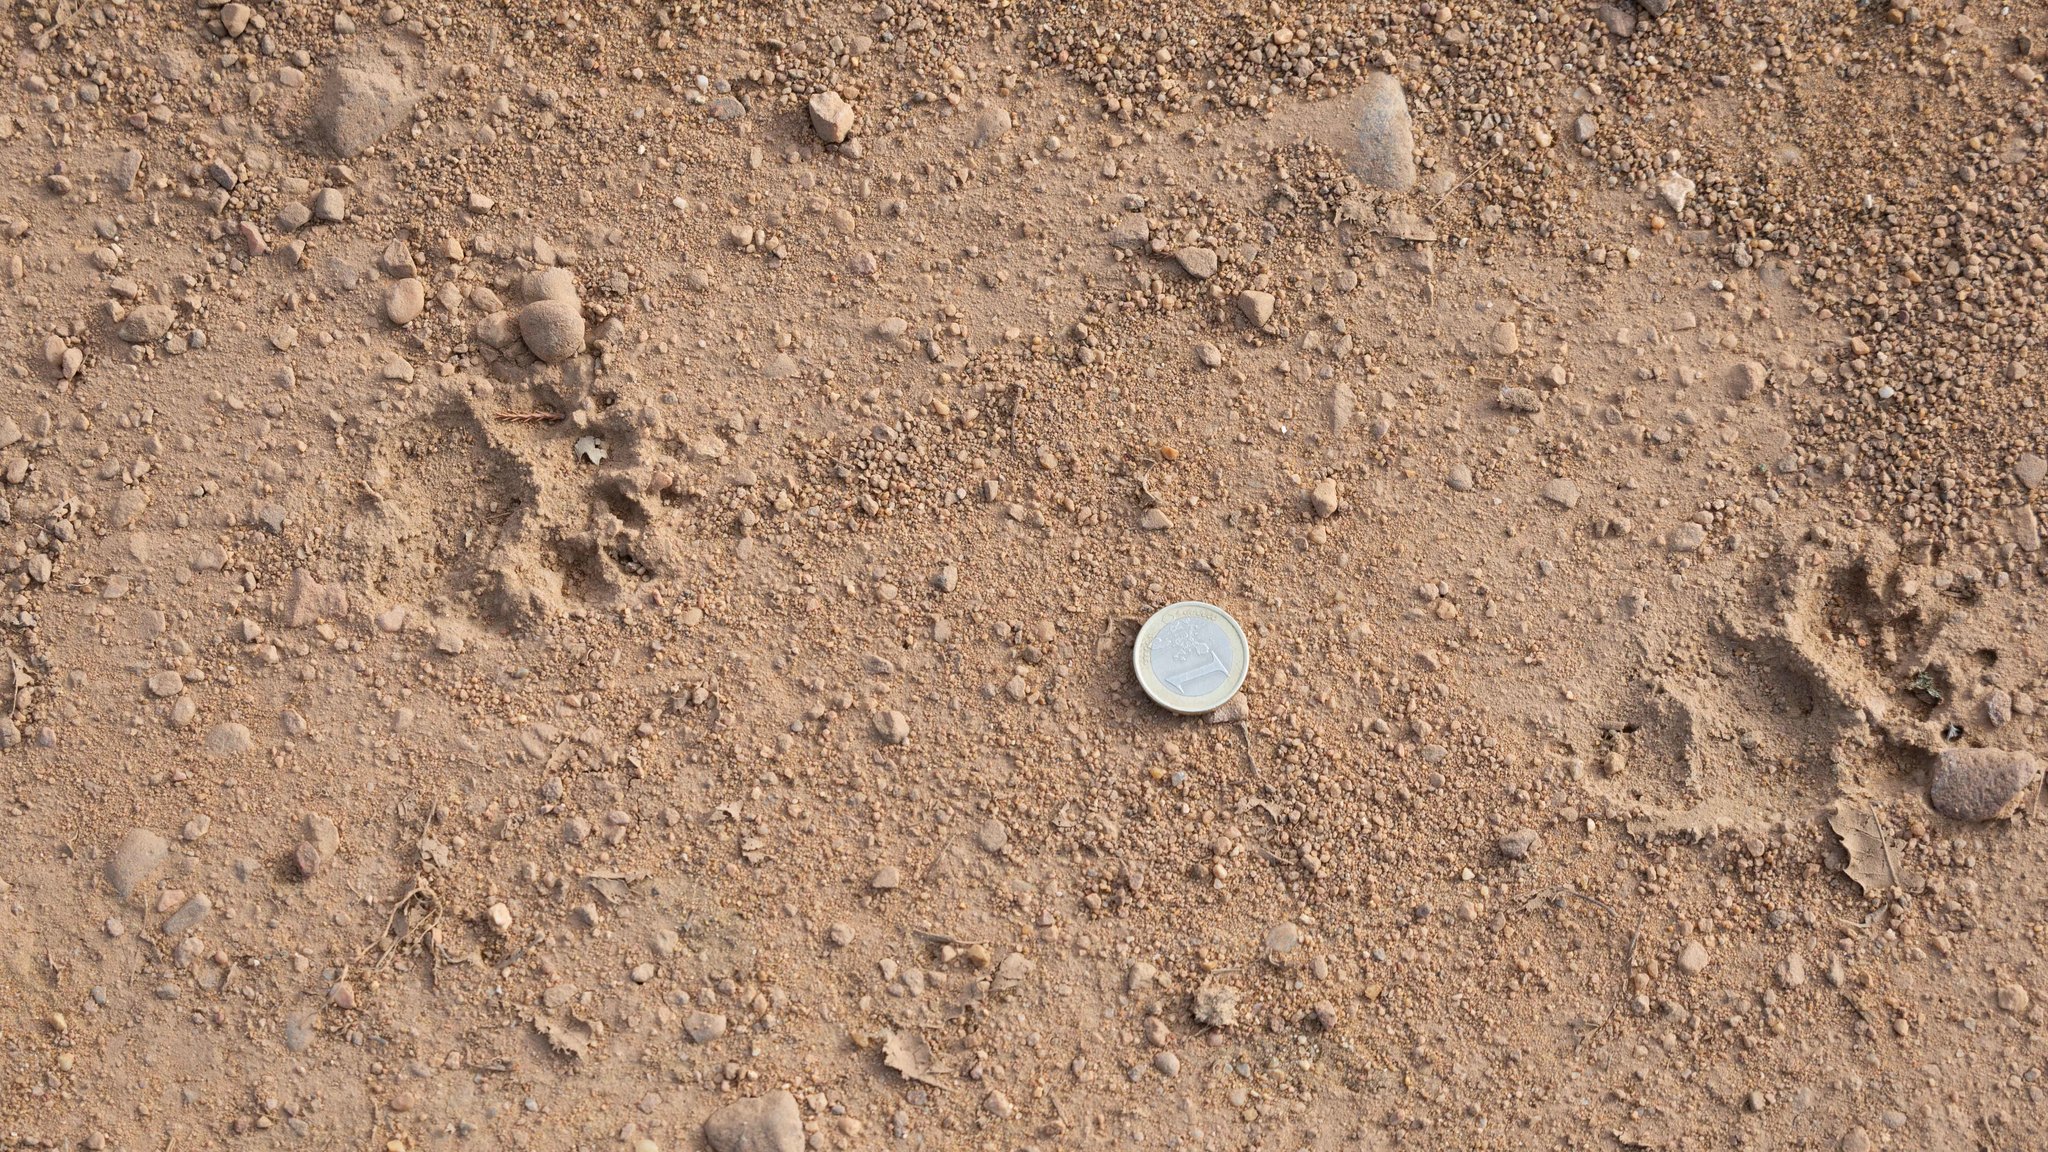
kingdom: Animalia
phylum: Chordata
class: Mammalia
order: Carnivora
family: Mustelidae
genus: Meles
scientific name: Meles meles
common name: Eurasian badger
